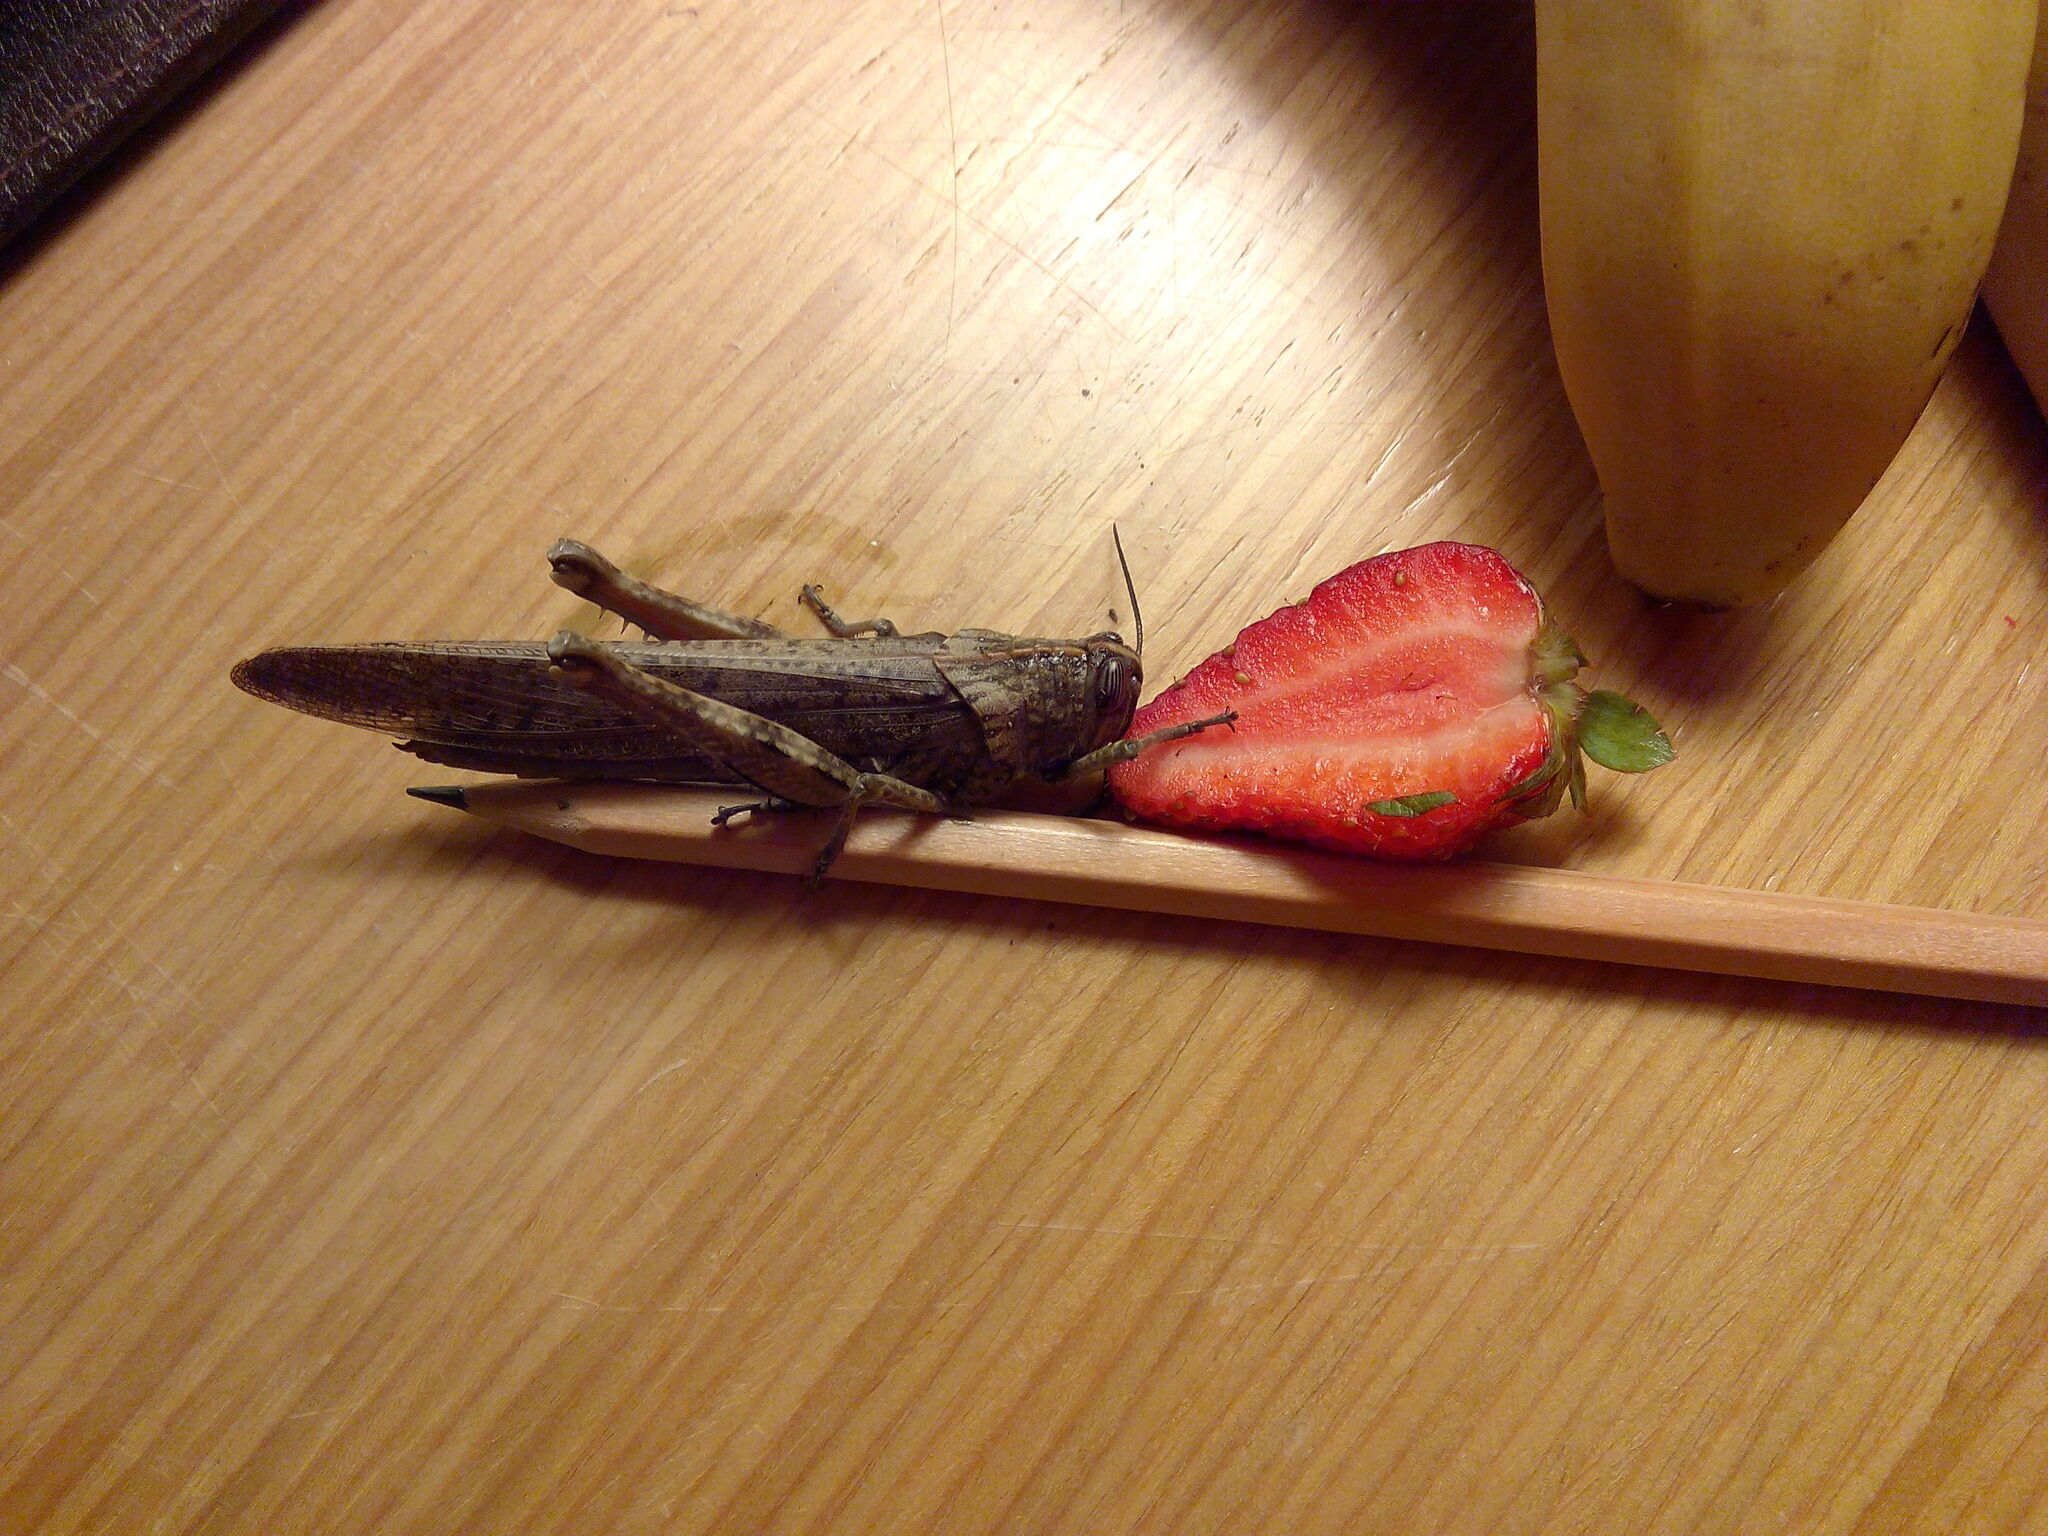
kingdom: Animalia
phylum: Arthropoda
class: Insecta
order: Orthoptera
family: Acrididae
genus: Anacridium
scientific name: Anacridium aegyptium
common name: Egyptian grasshopper
